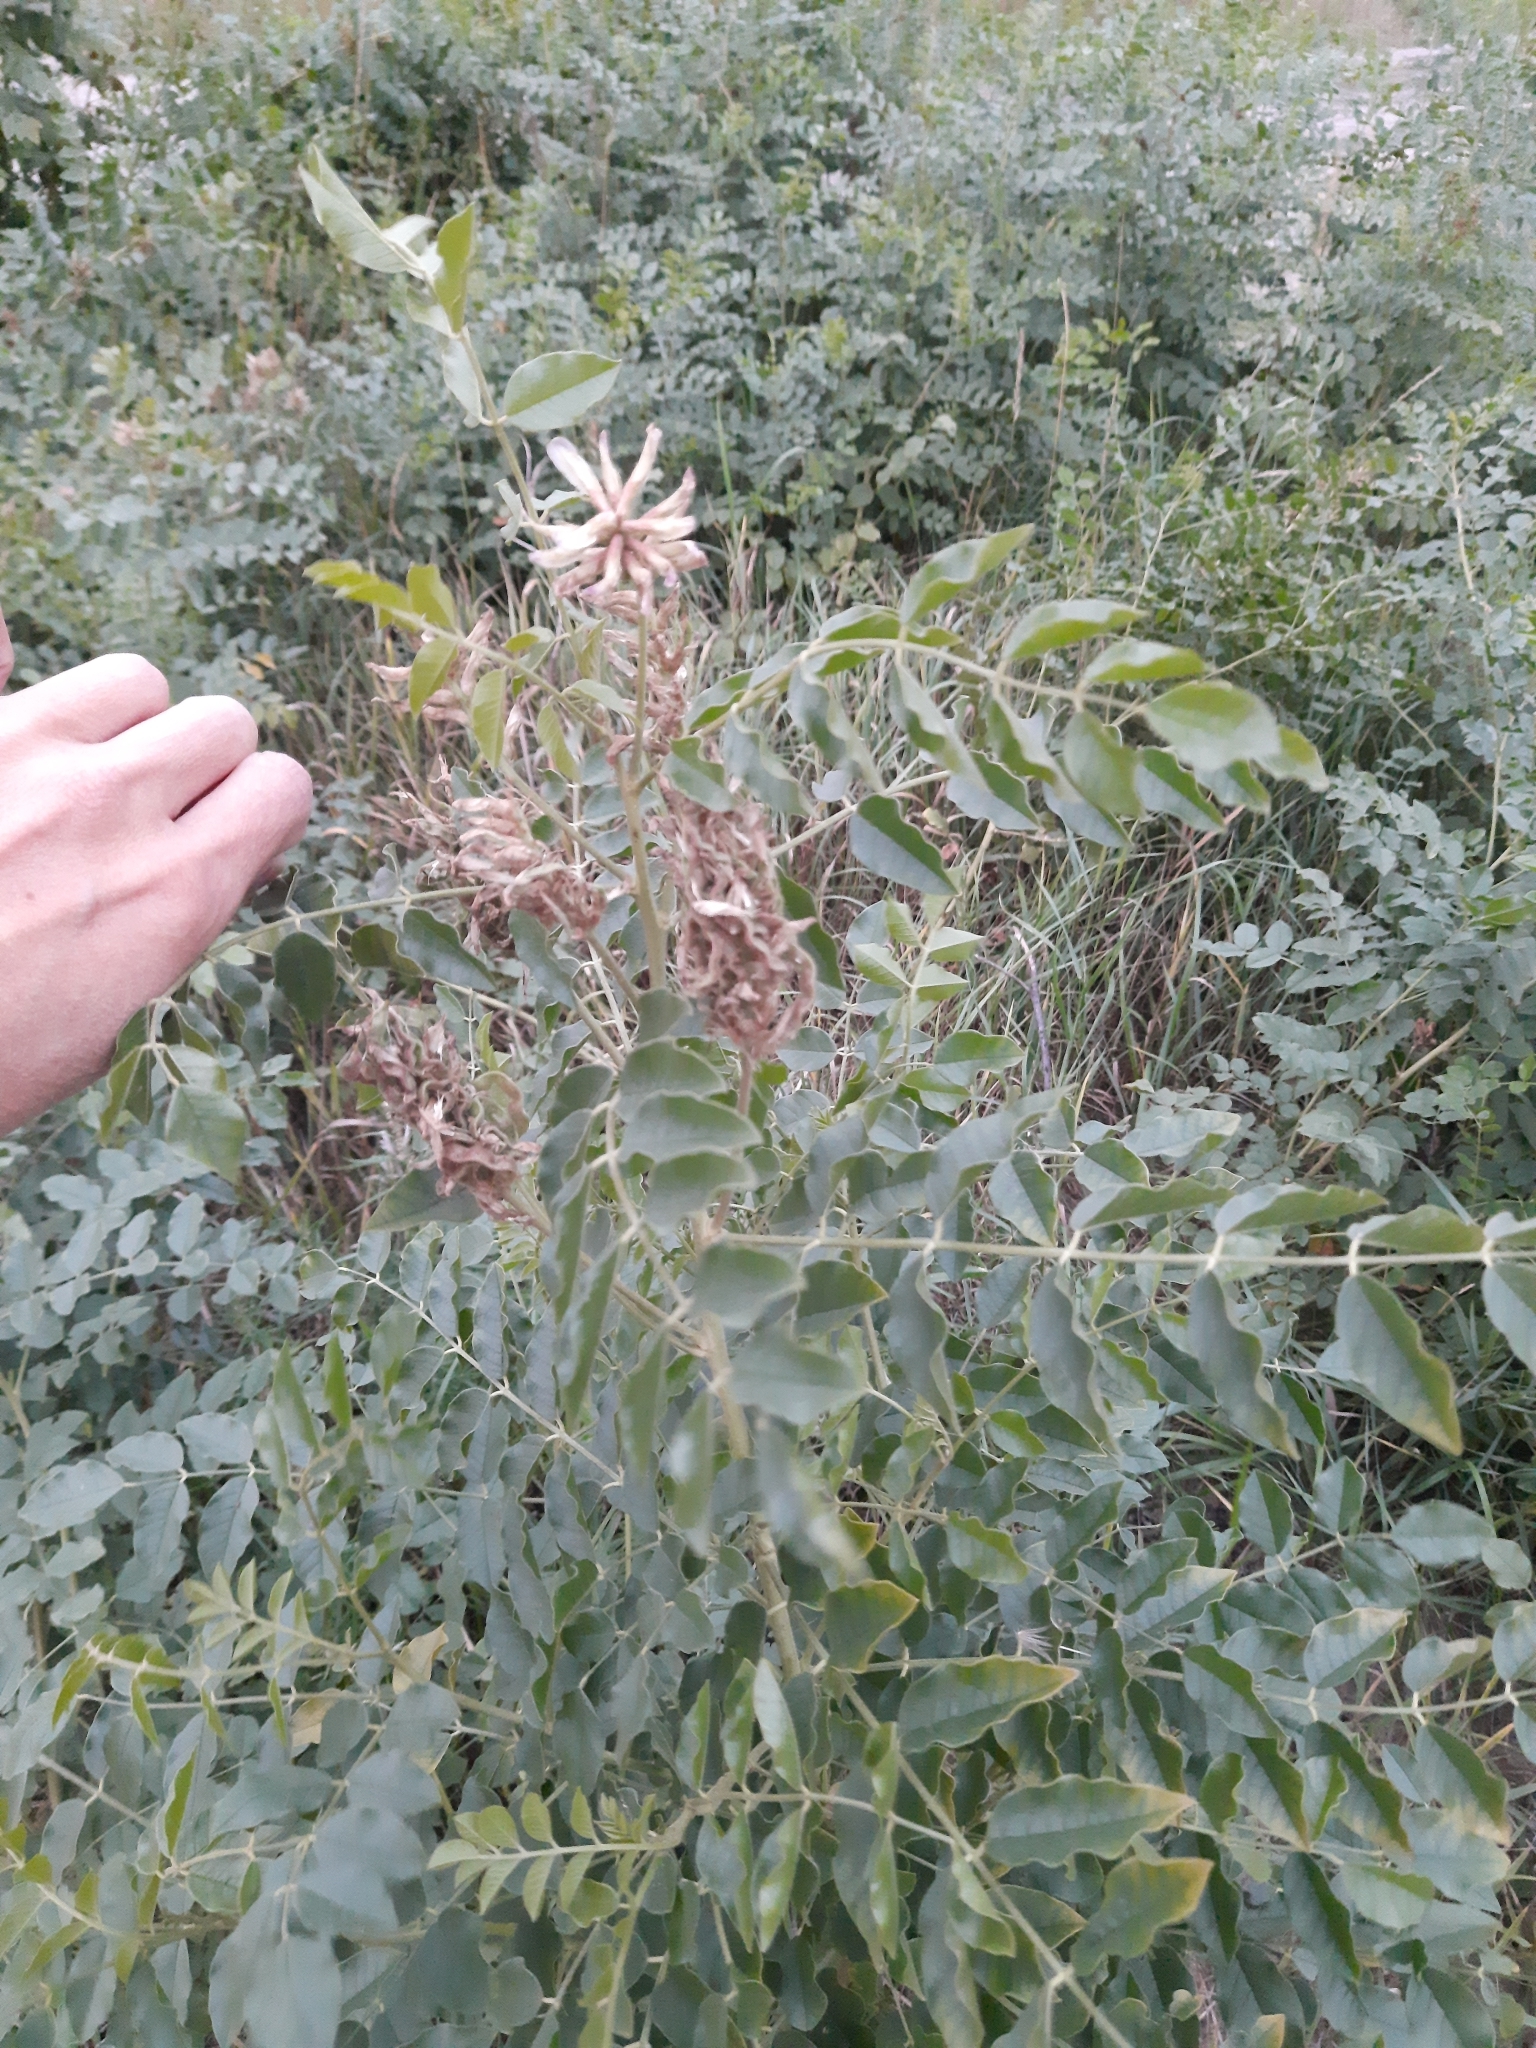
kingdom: Plantae
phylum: Tracheophyta
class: Magnoliopsida
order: Fabales
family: Fabaceae
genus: Glycyrrhiza
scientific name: Glycyrrhiza uralensis
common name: Chinese licorice
